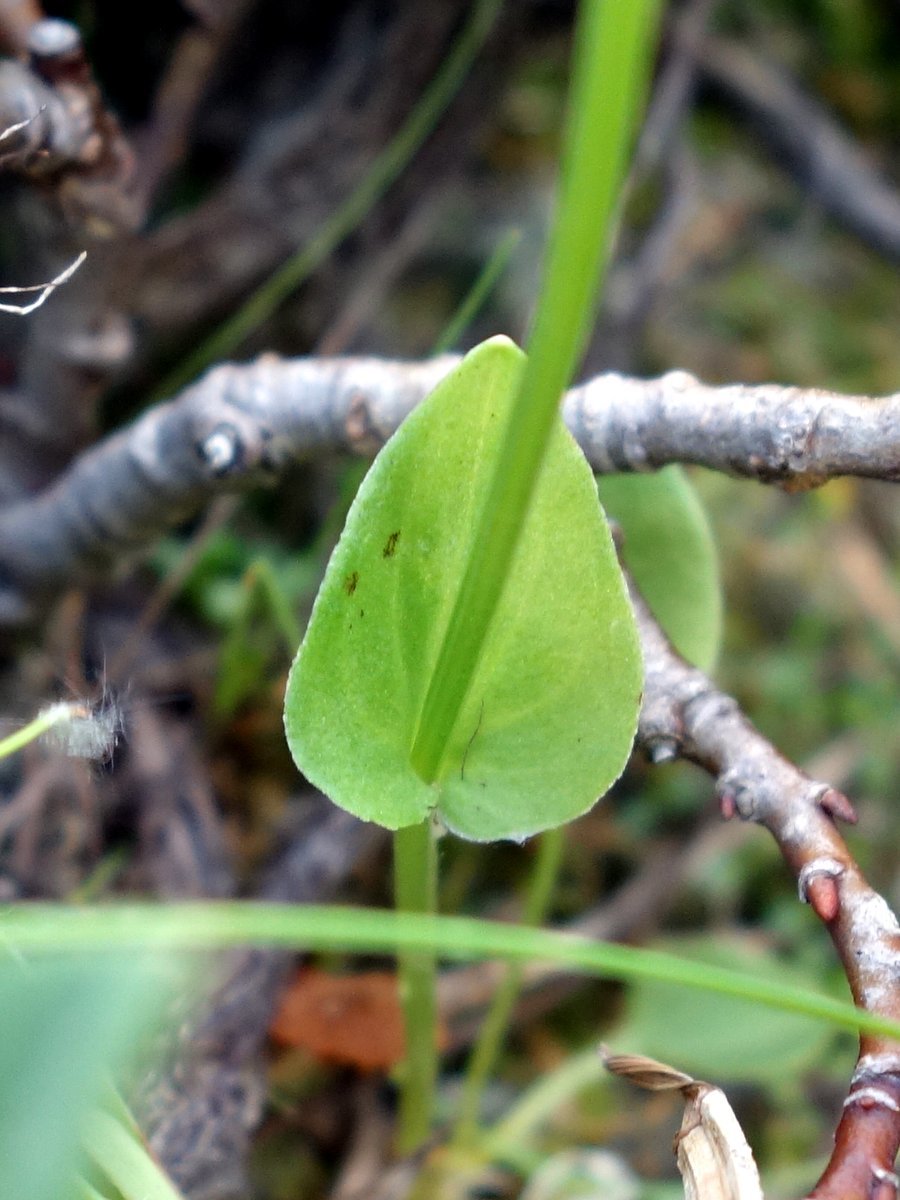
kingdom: Plantae
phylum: Tracheophyta
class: Magnoliopsida
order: Celastrales
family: Parnassiaceae
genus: Parnassia
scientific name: Parnassia palustris
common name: Grass-of-parnassus
